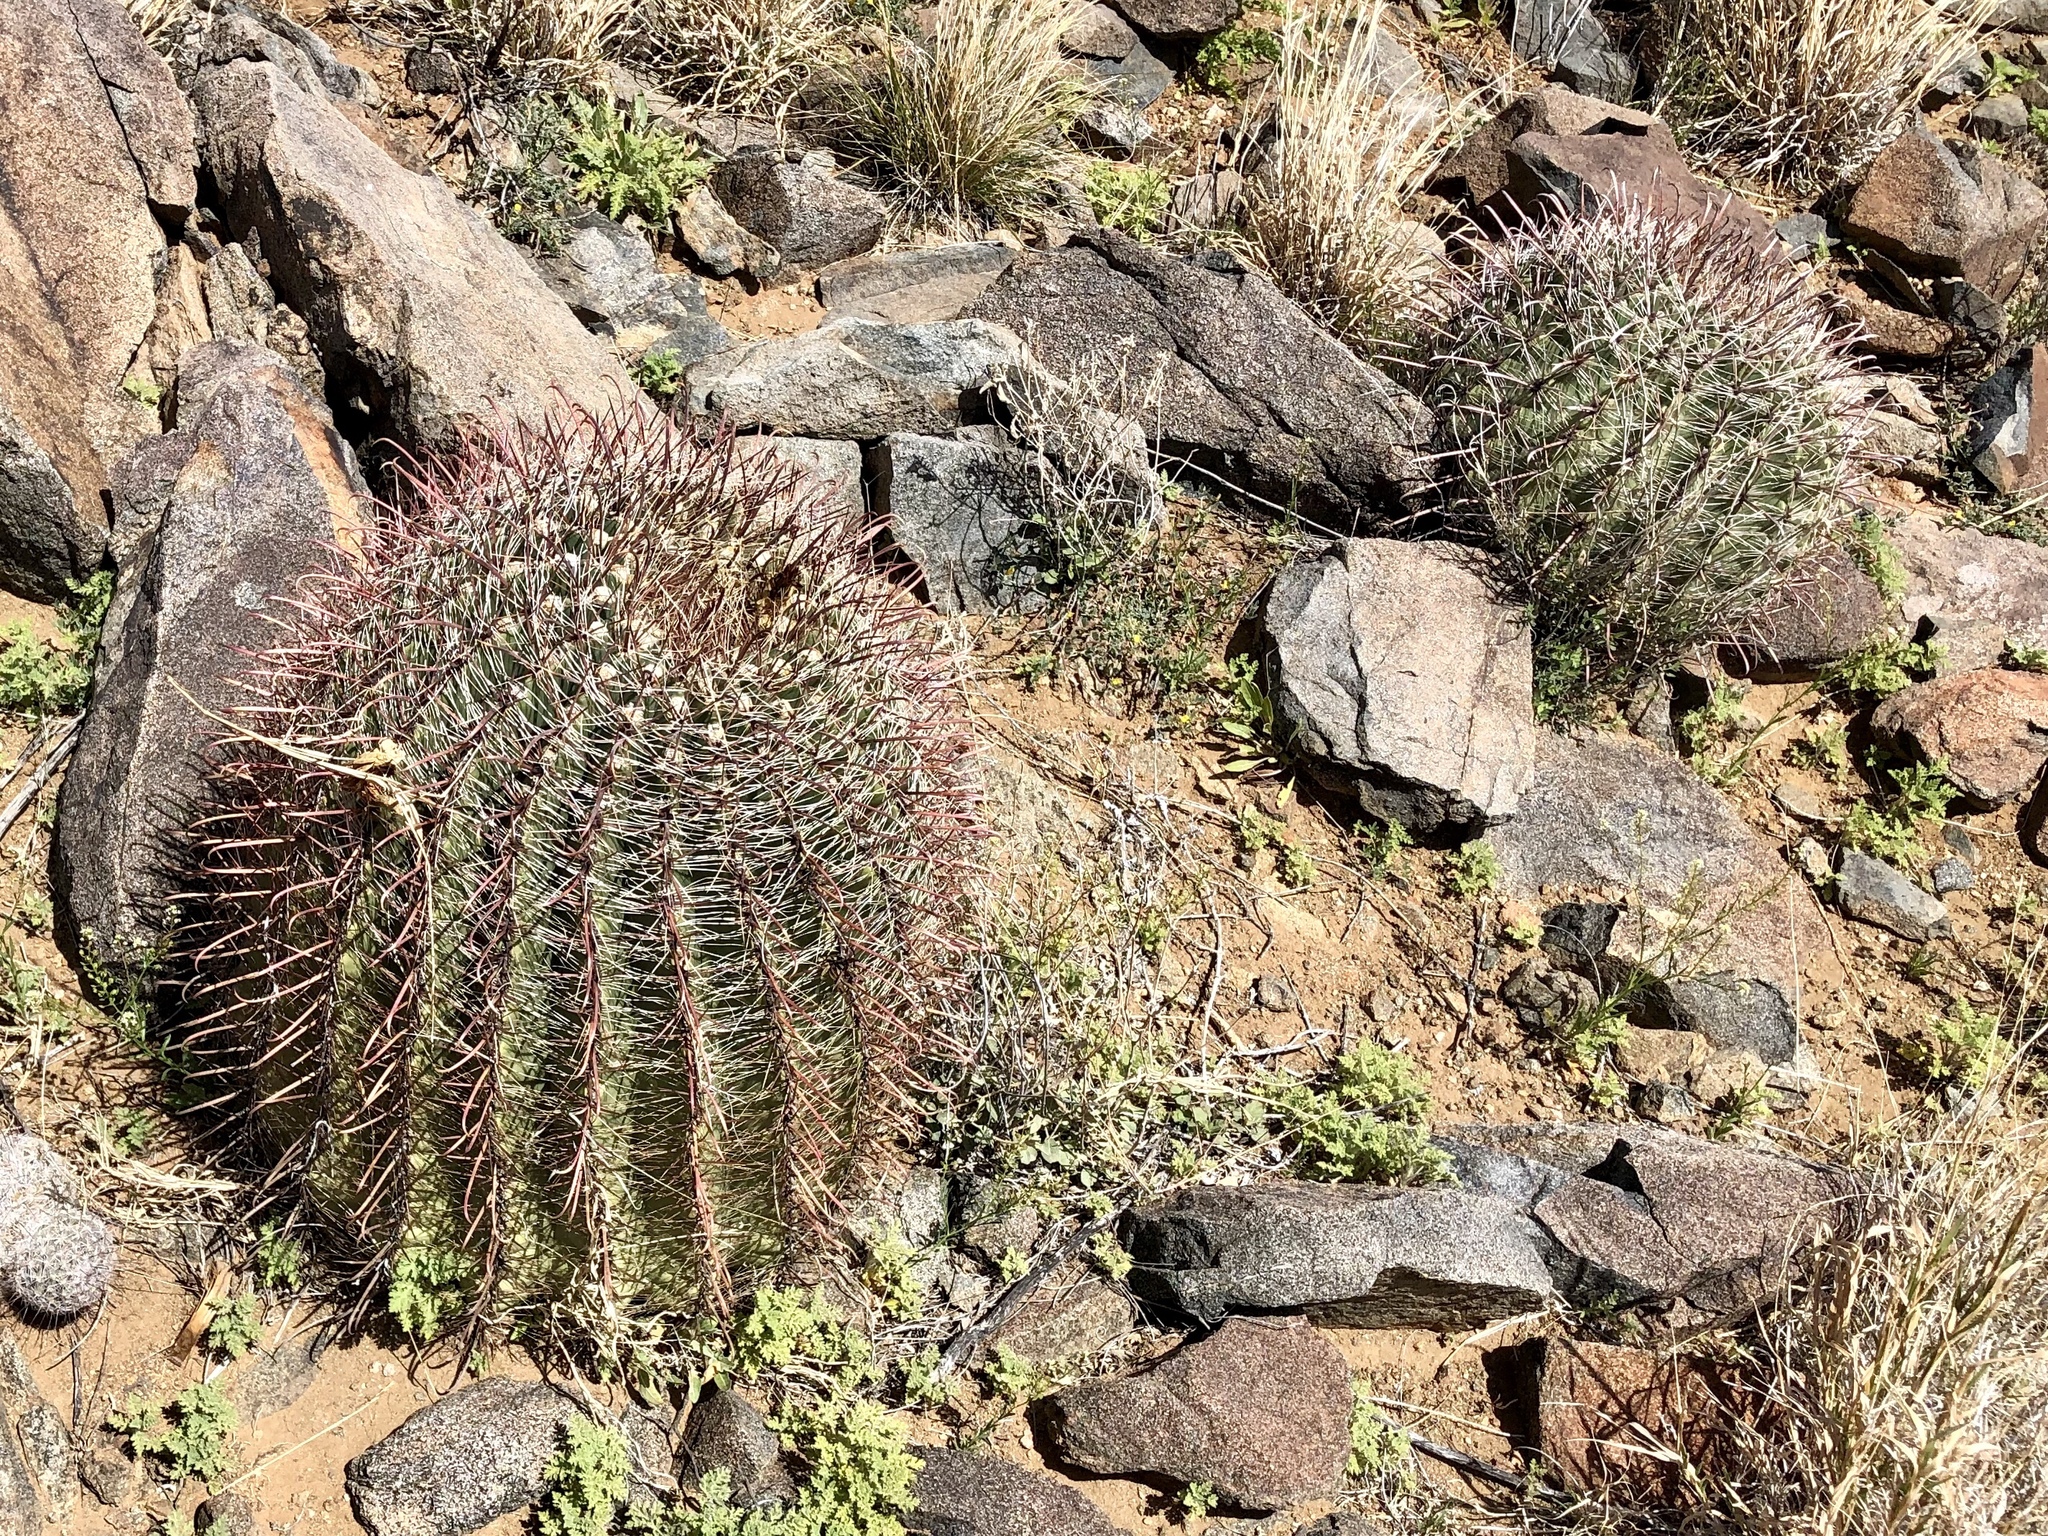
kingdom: Plantae
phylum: Tracheophyta
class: Magnoliopsida
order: Caryophyllales
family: Cactaceae
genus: Ferocactus
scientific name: Ferocactus wislizeni
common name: Candy barrel cactus
